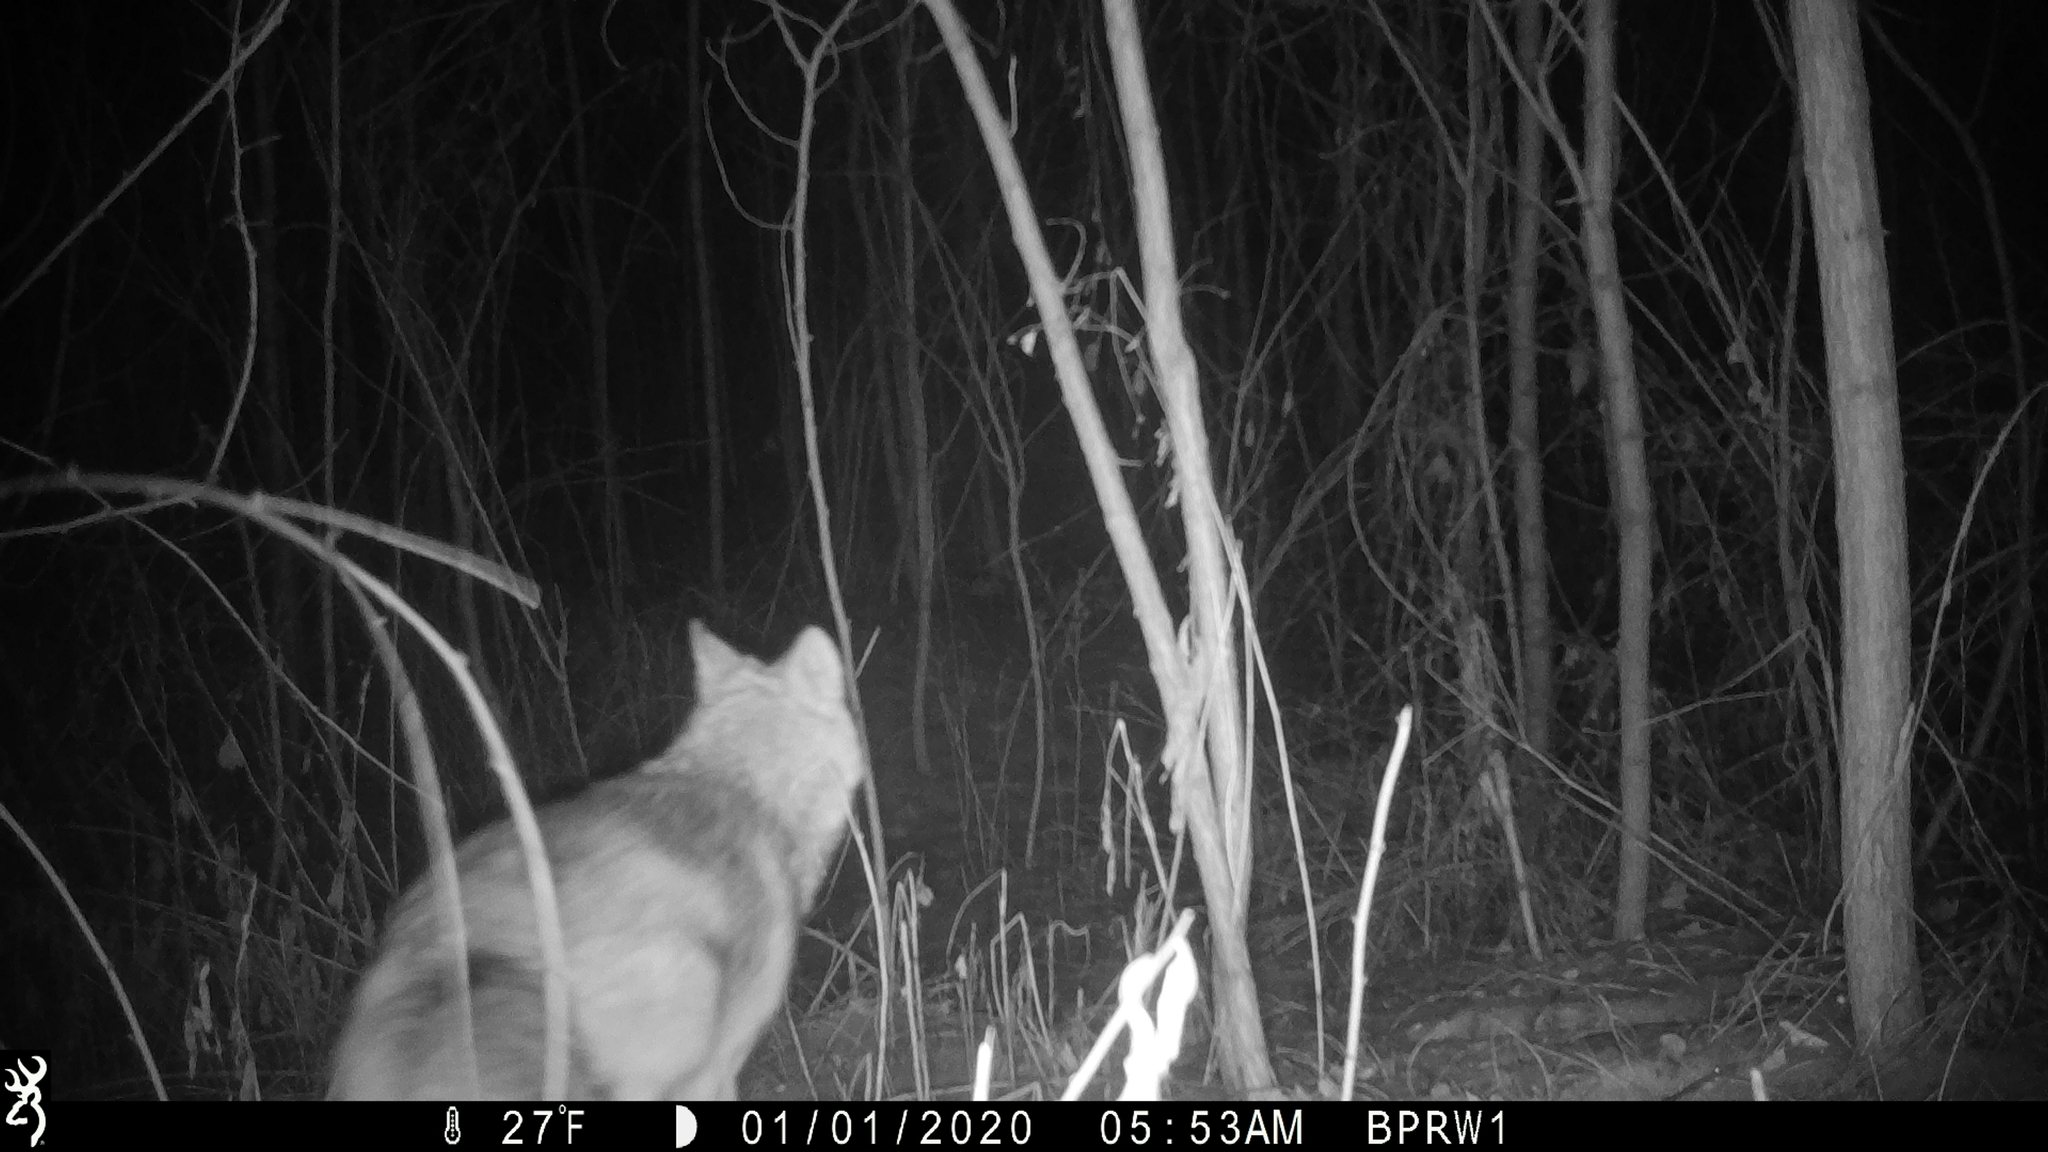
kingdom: Animalia
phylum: Chordata
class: Mammalia
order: Carnivora
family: Canidae
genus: Canis
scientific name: Canis latrans
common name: Coyote
